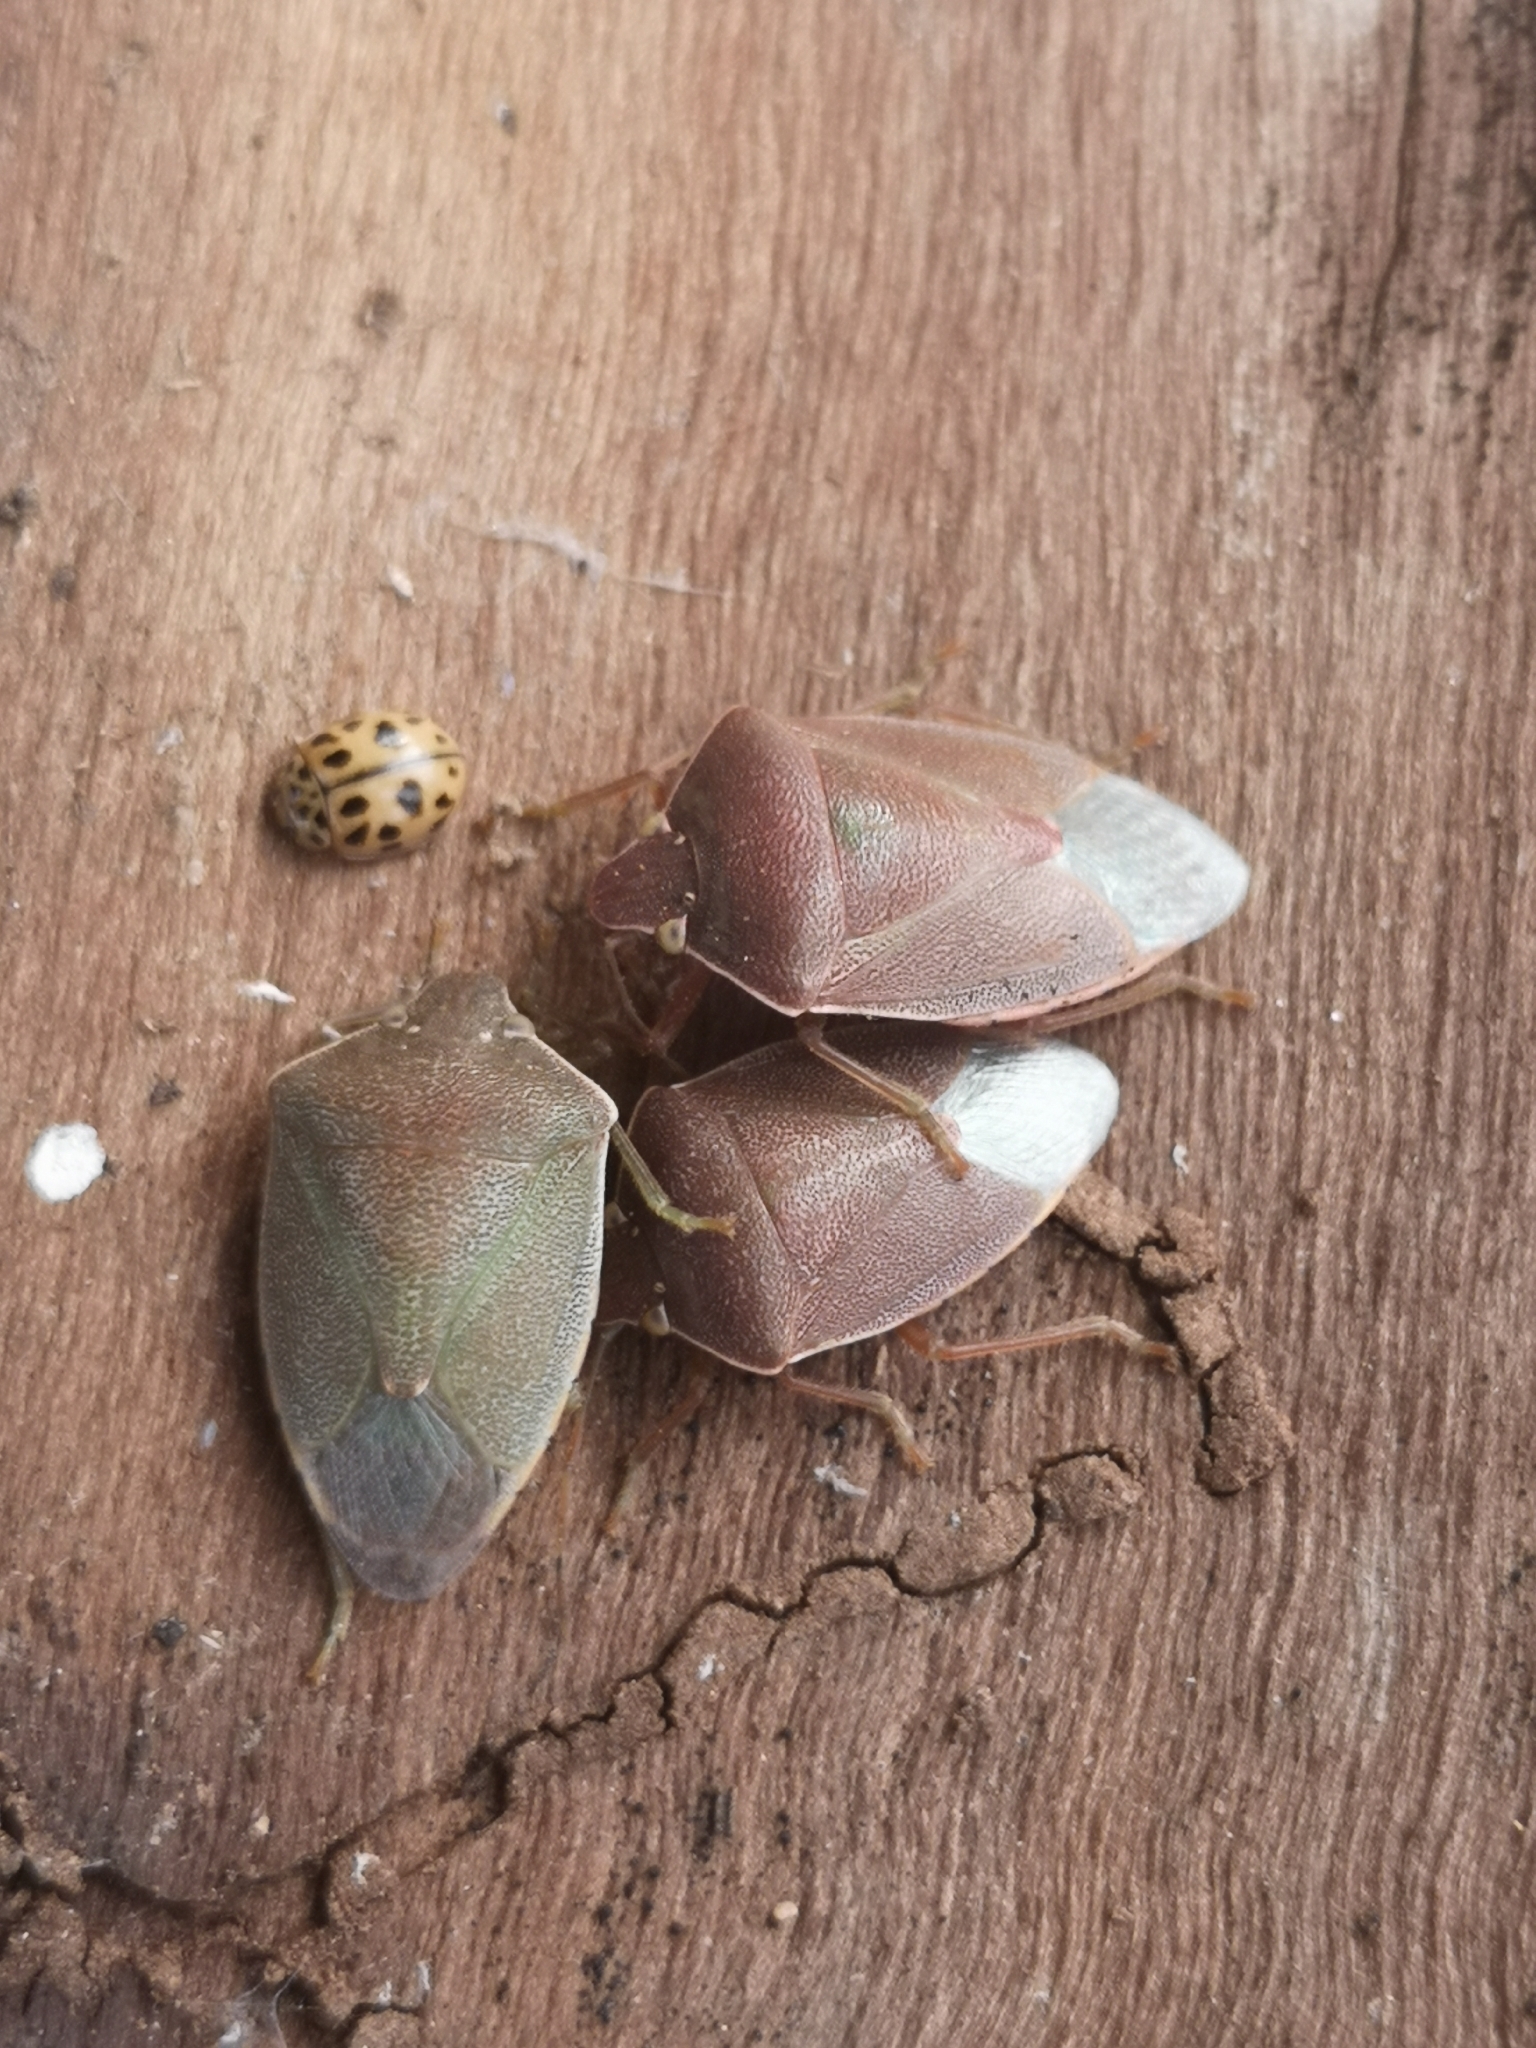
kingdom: Animalia
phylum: Arthropoda
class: Insecta
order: Hemiptera
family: Pentatomidae
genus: Acrosternum
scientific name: Acrosternum millierei
